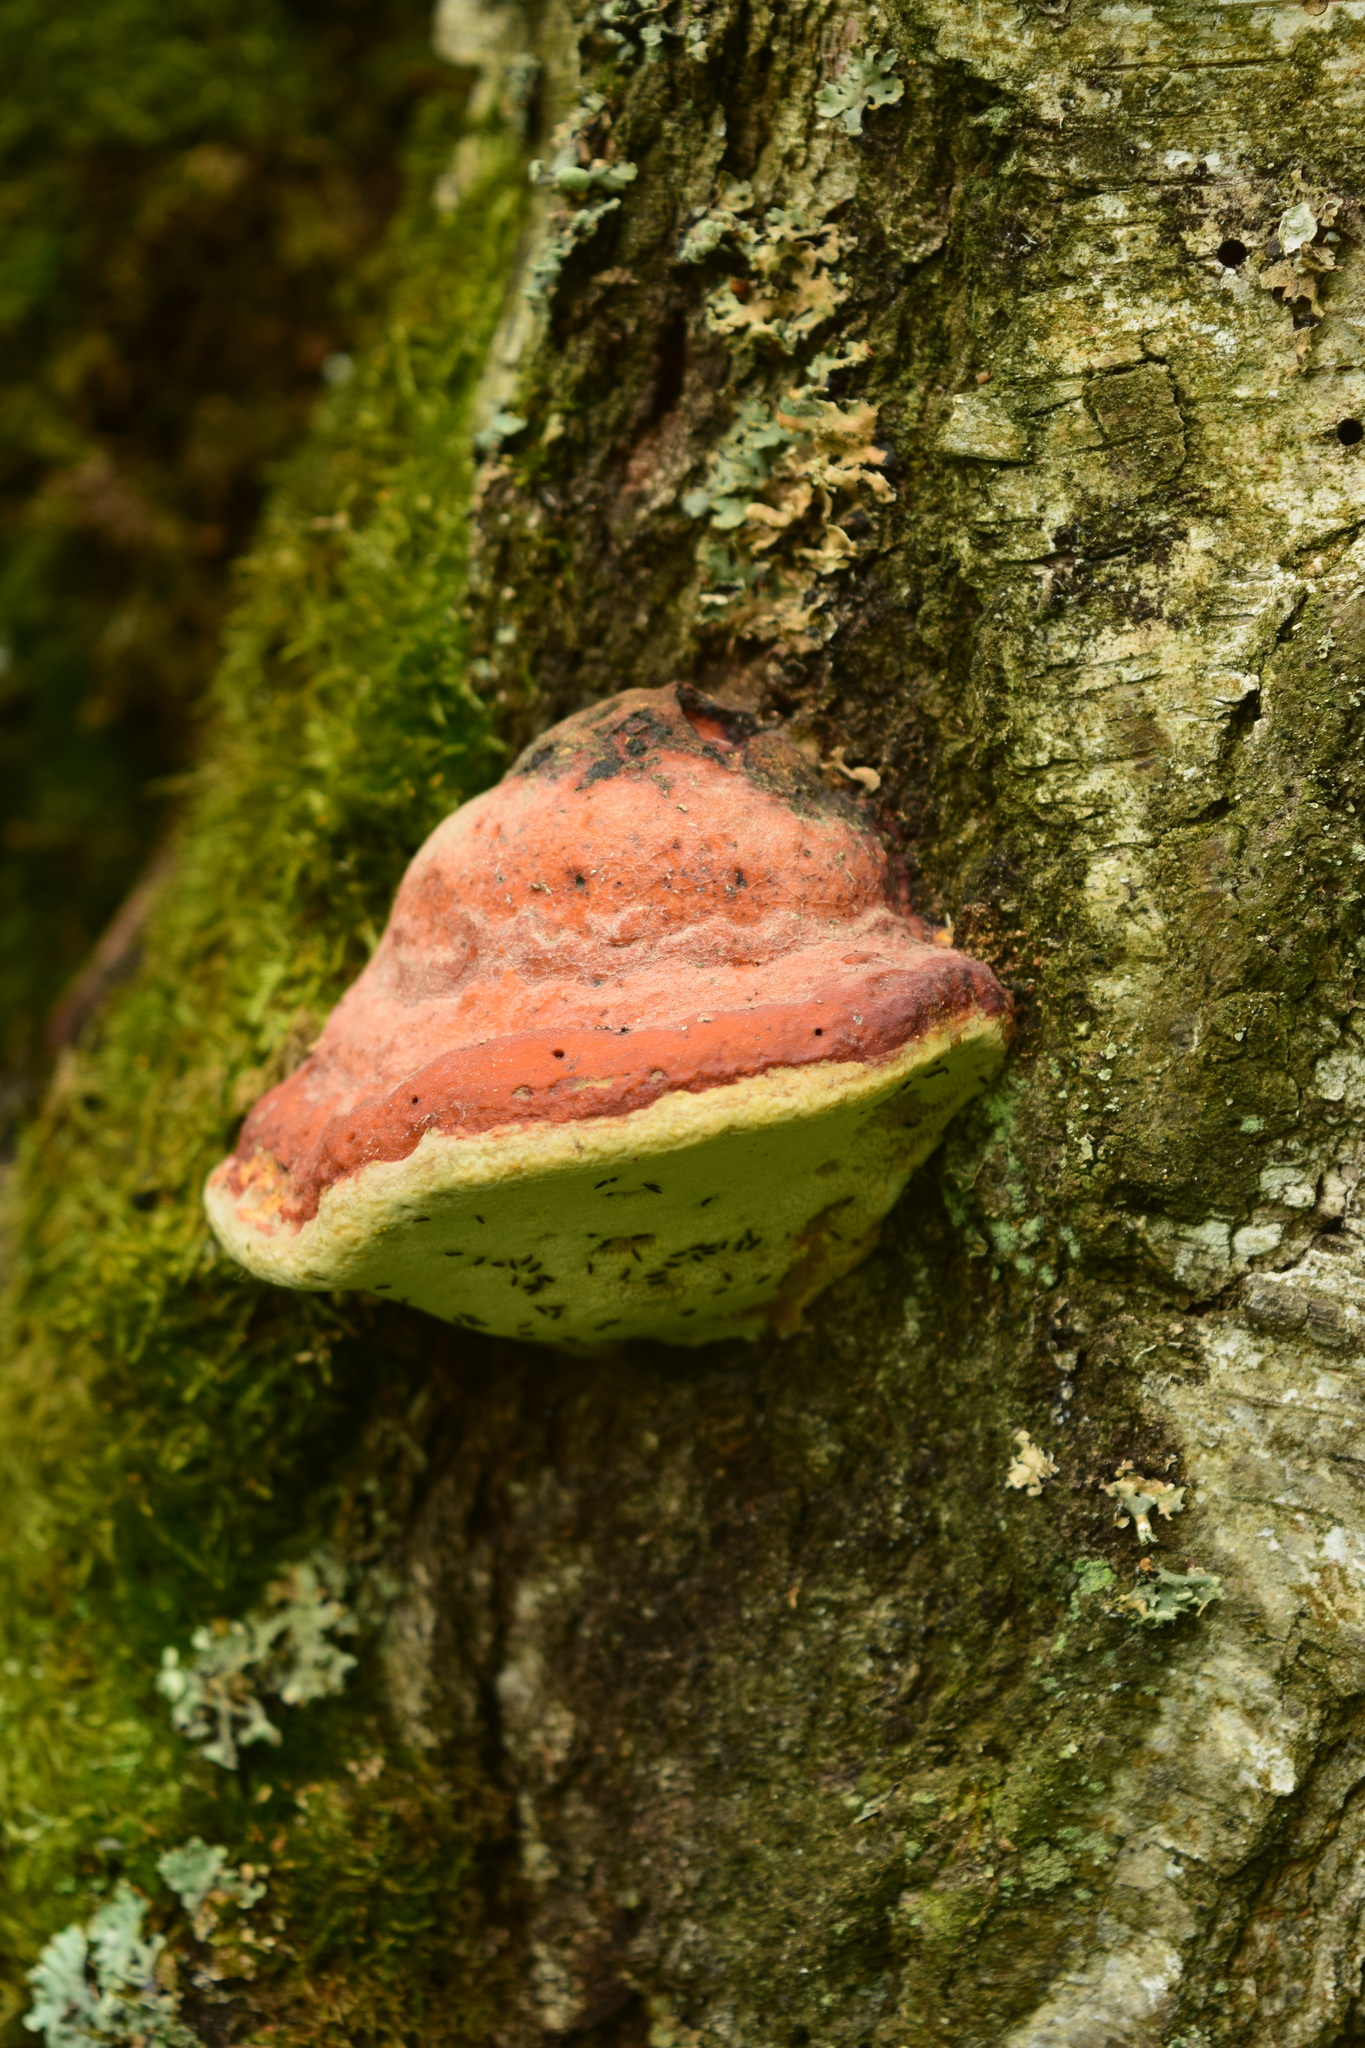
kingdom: Fungi
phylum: Basidiomycota
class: Agaricomycetes
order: Polyporales
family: Fomitopsidaceae
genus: Fomitopsis
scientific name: Fomitopsis pinicola
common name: Red-belted bracket
